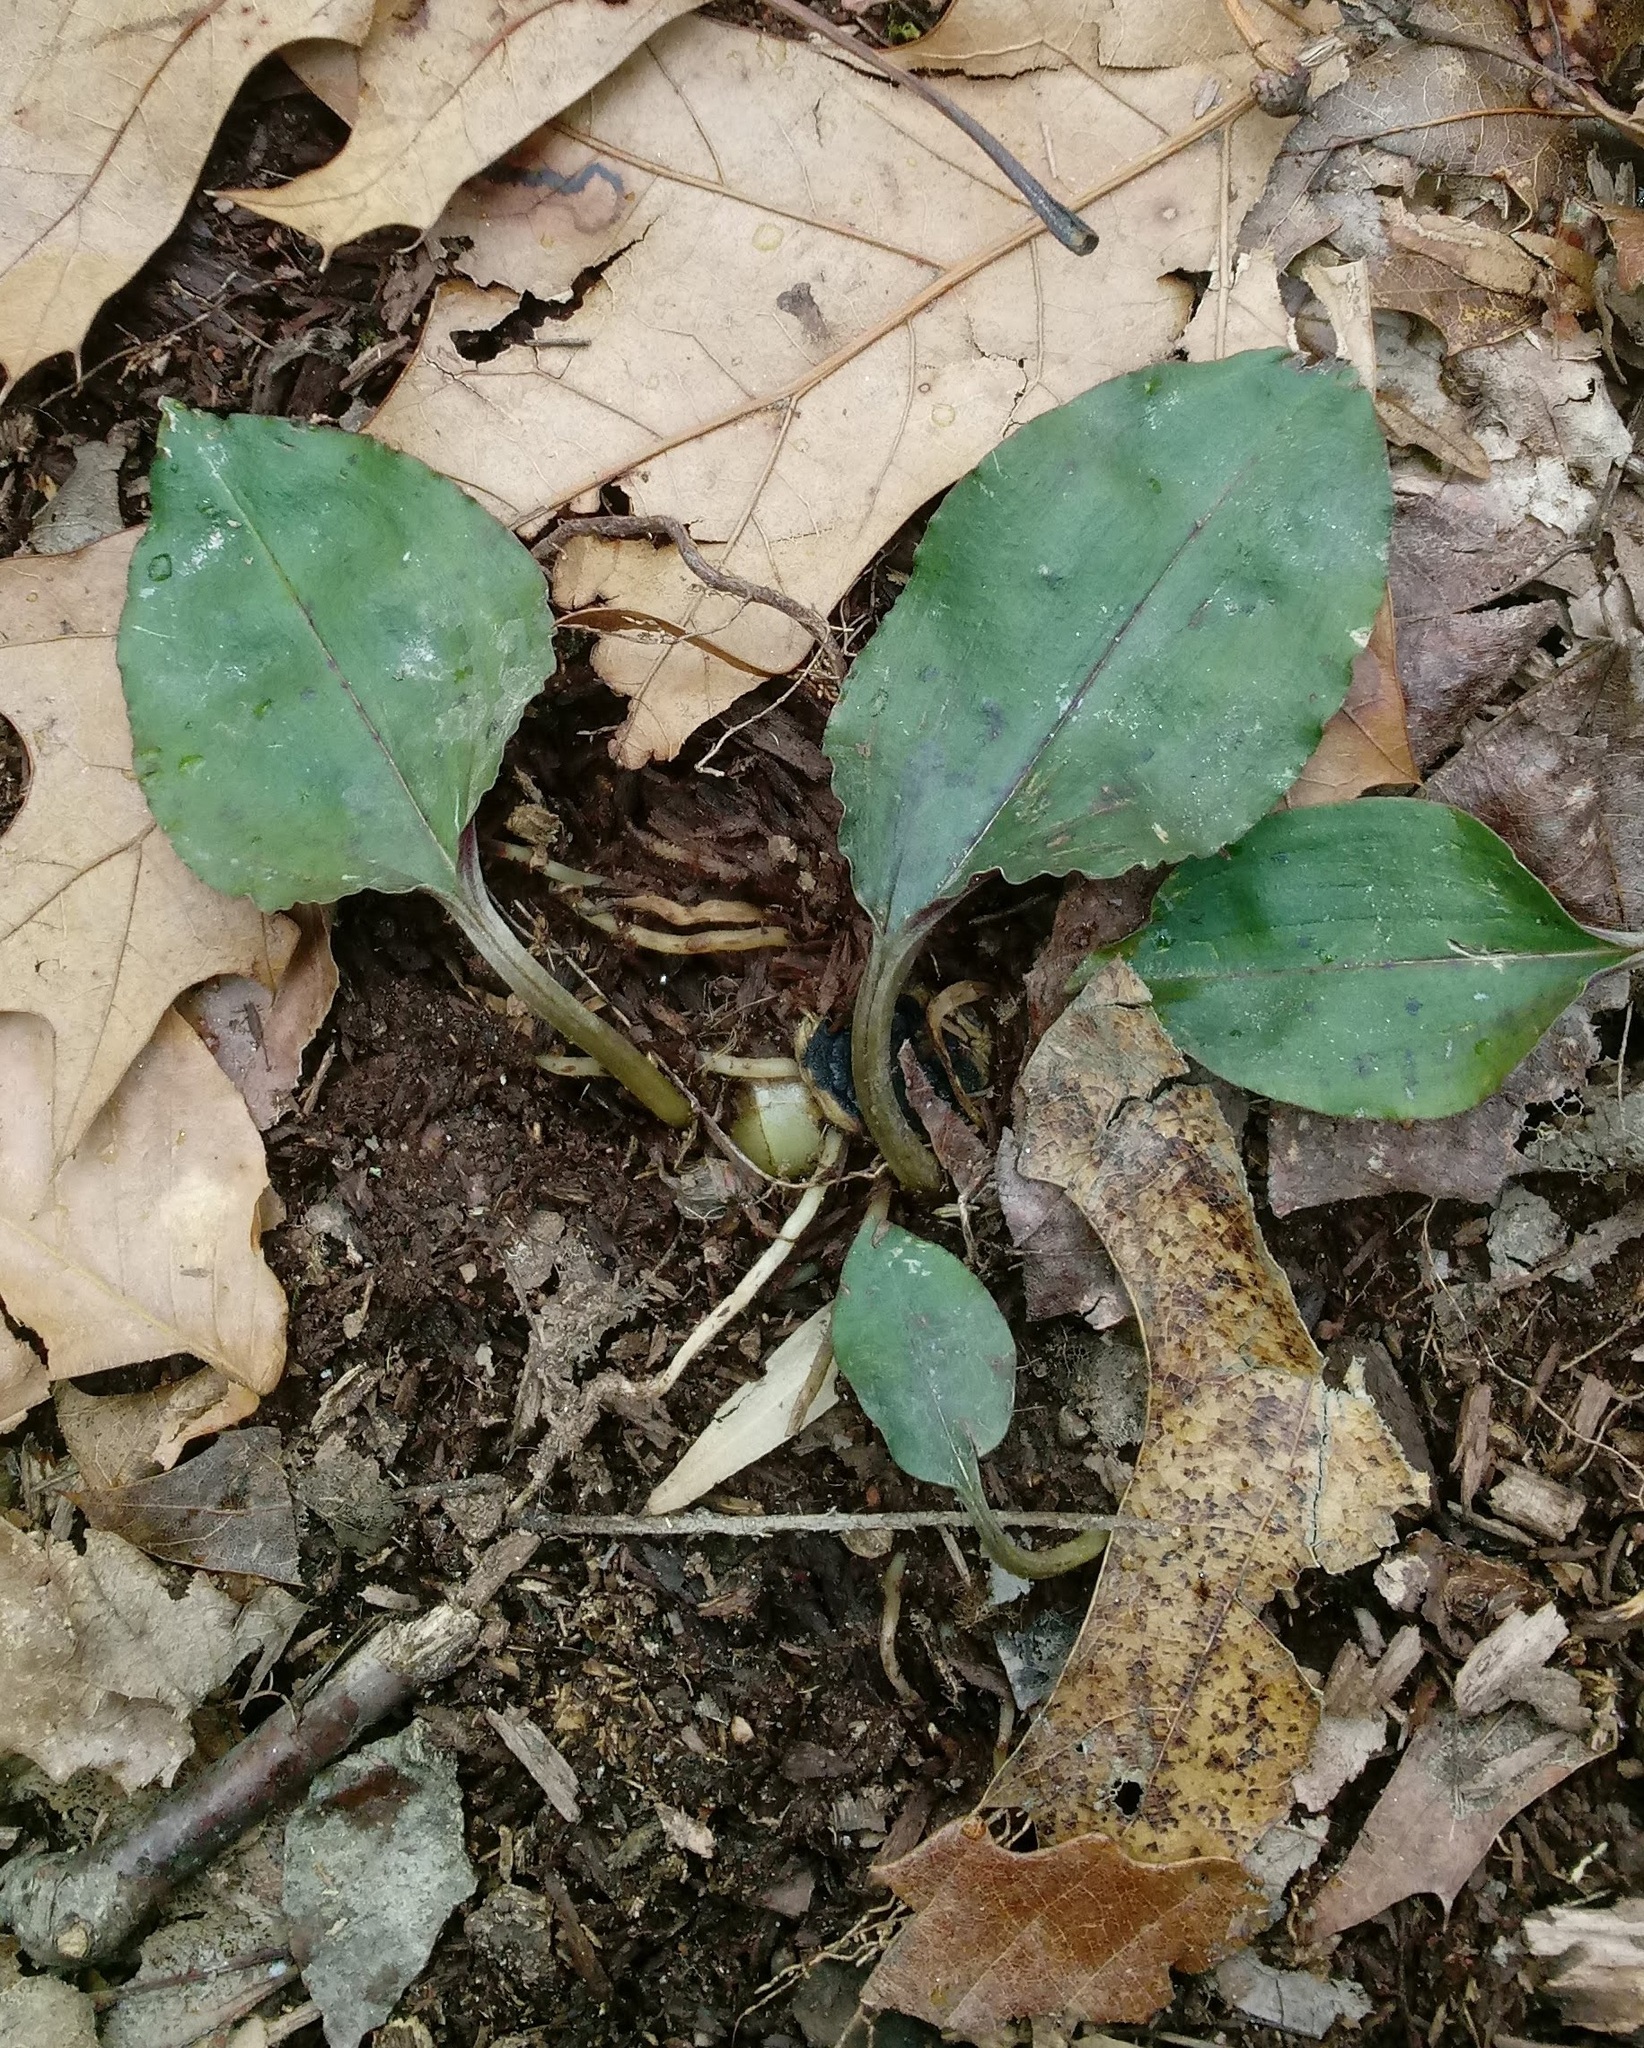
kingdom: Plantae
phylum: Tracheophyta
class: Liliopsida
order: Asparagales
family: Orchidaceae
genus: Tipularia
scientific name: Tipularia discolor
